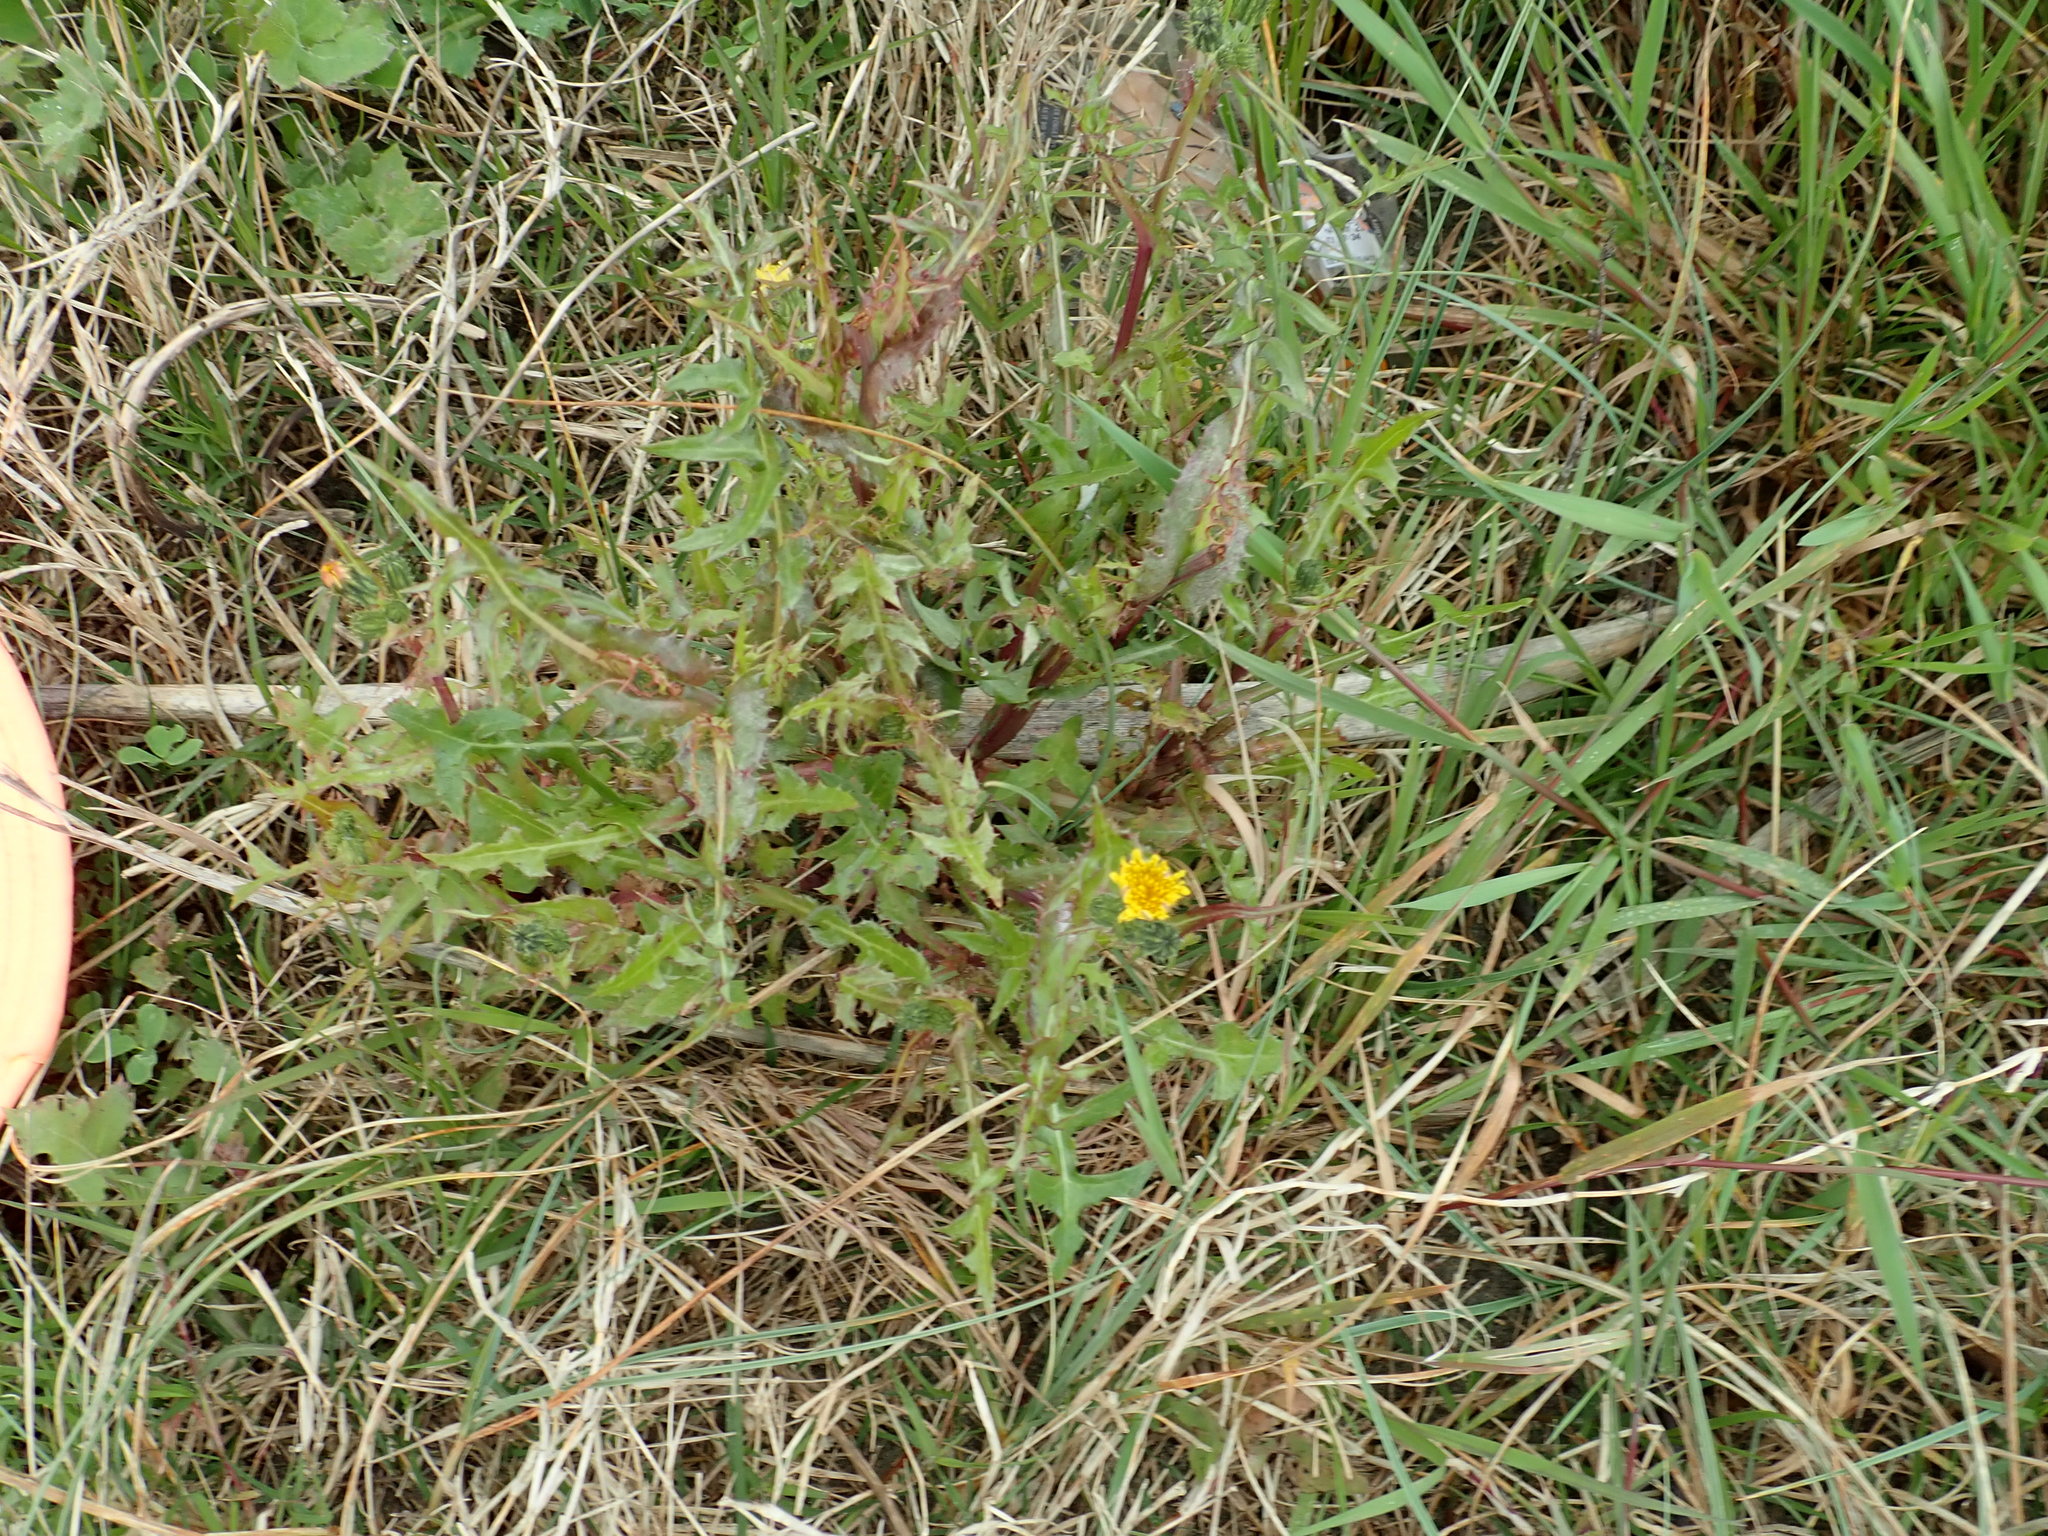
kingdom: Plantae
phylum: Tracheophyta
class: Magnoliopsida
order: Asterales
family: Asteraceae
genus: Sonchus
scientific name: Sonchus oleraceus
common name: Common sowthistle
